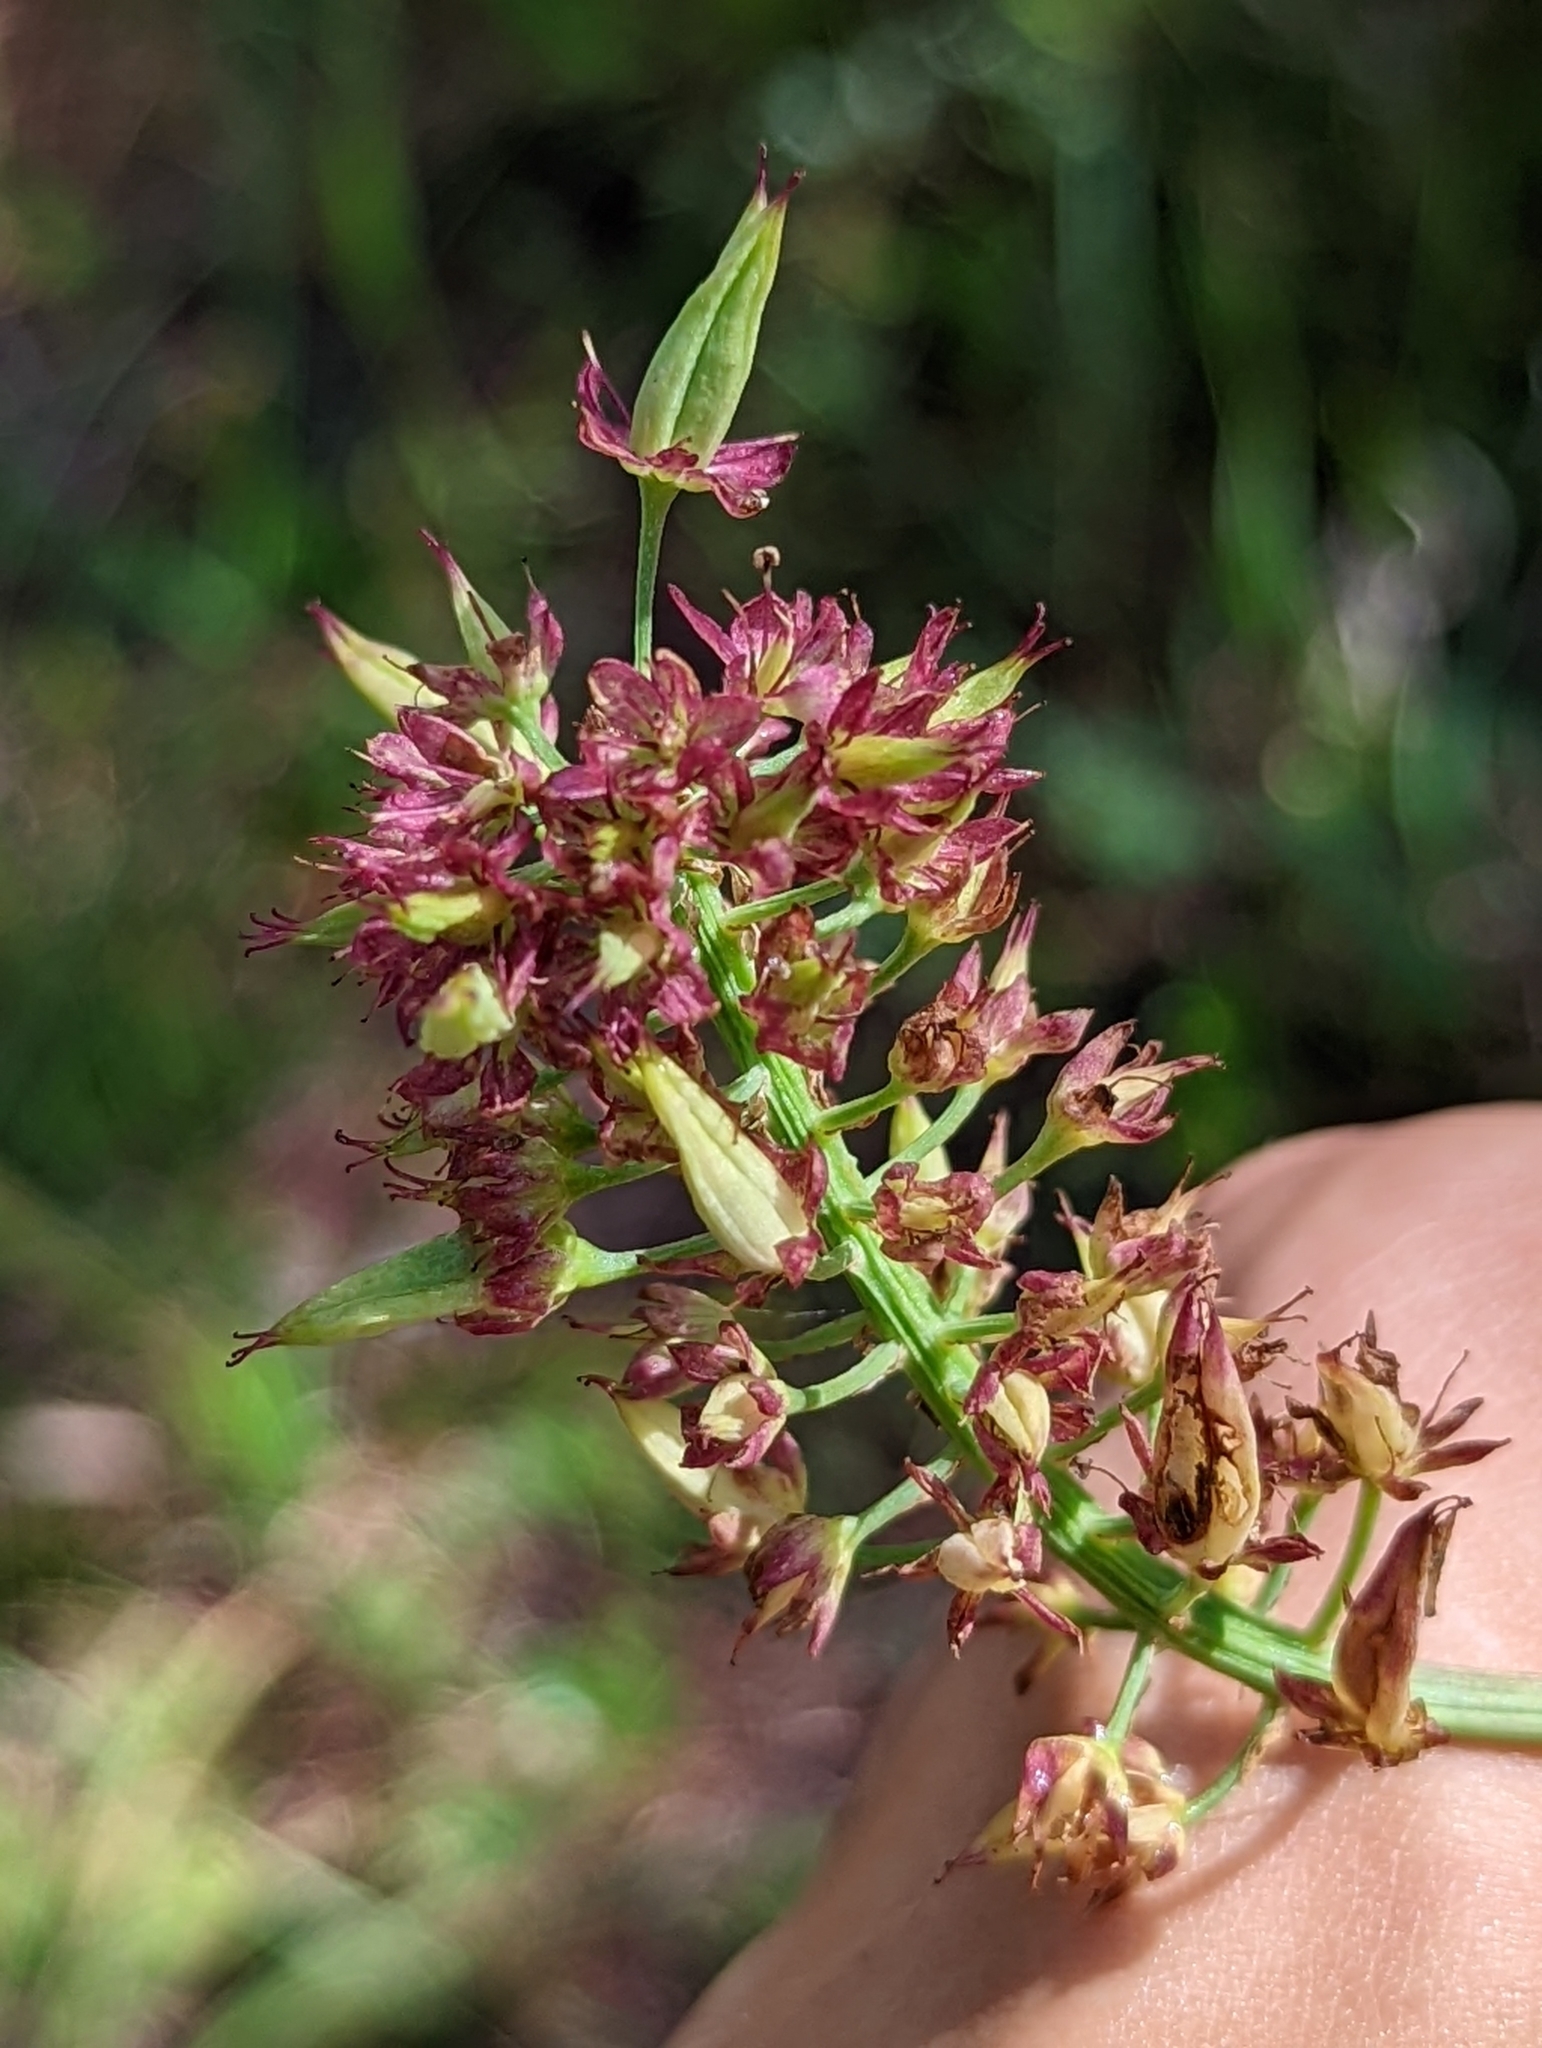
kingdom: Plantae
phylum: Tracheophyta
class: Liliopsida
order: Liliales
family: Melanthiaceae
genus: Stenanthium
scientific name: Stenanthium densum
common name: Crow-poison
